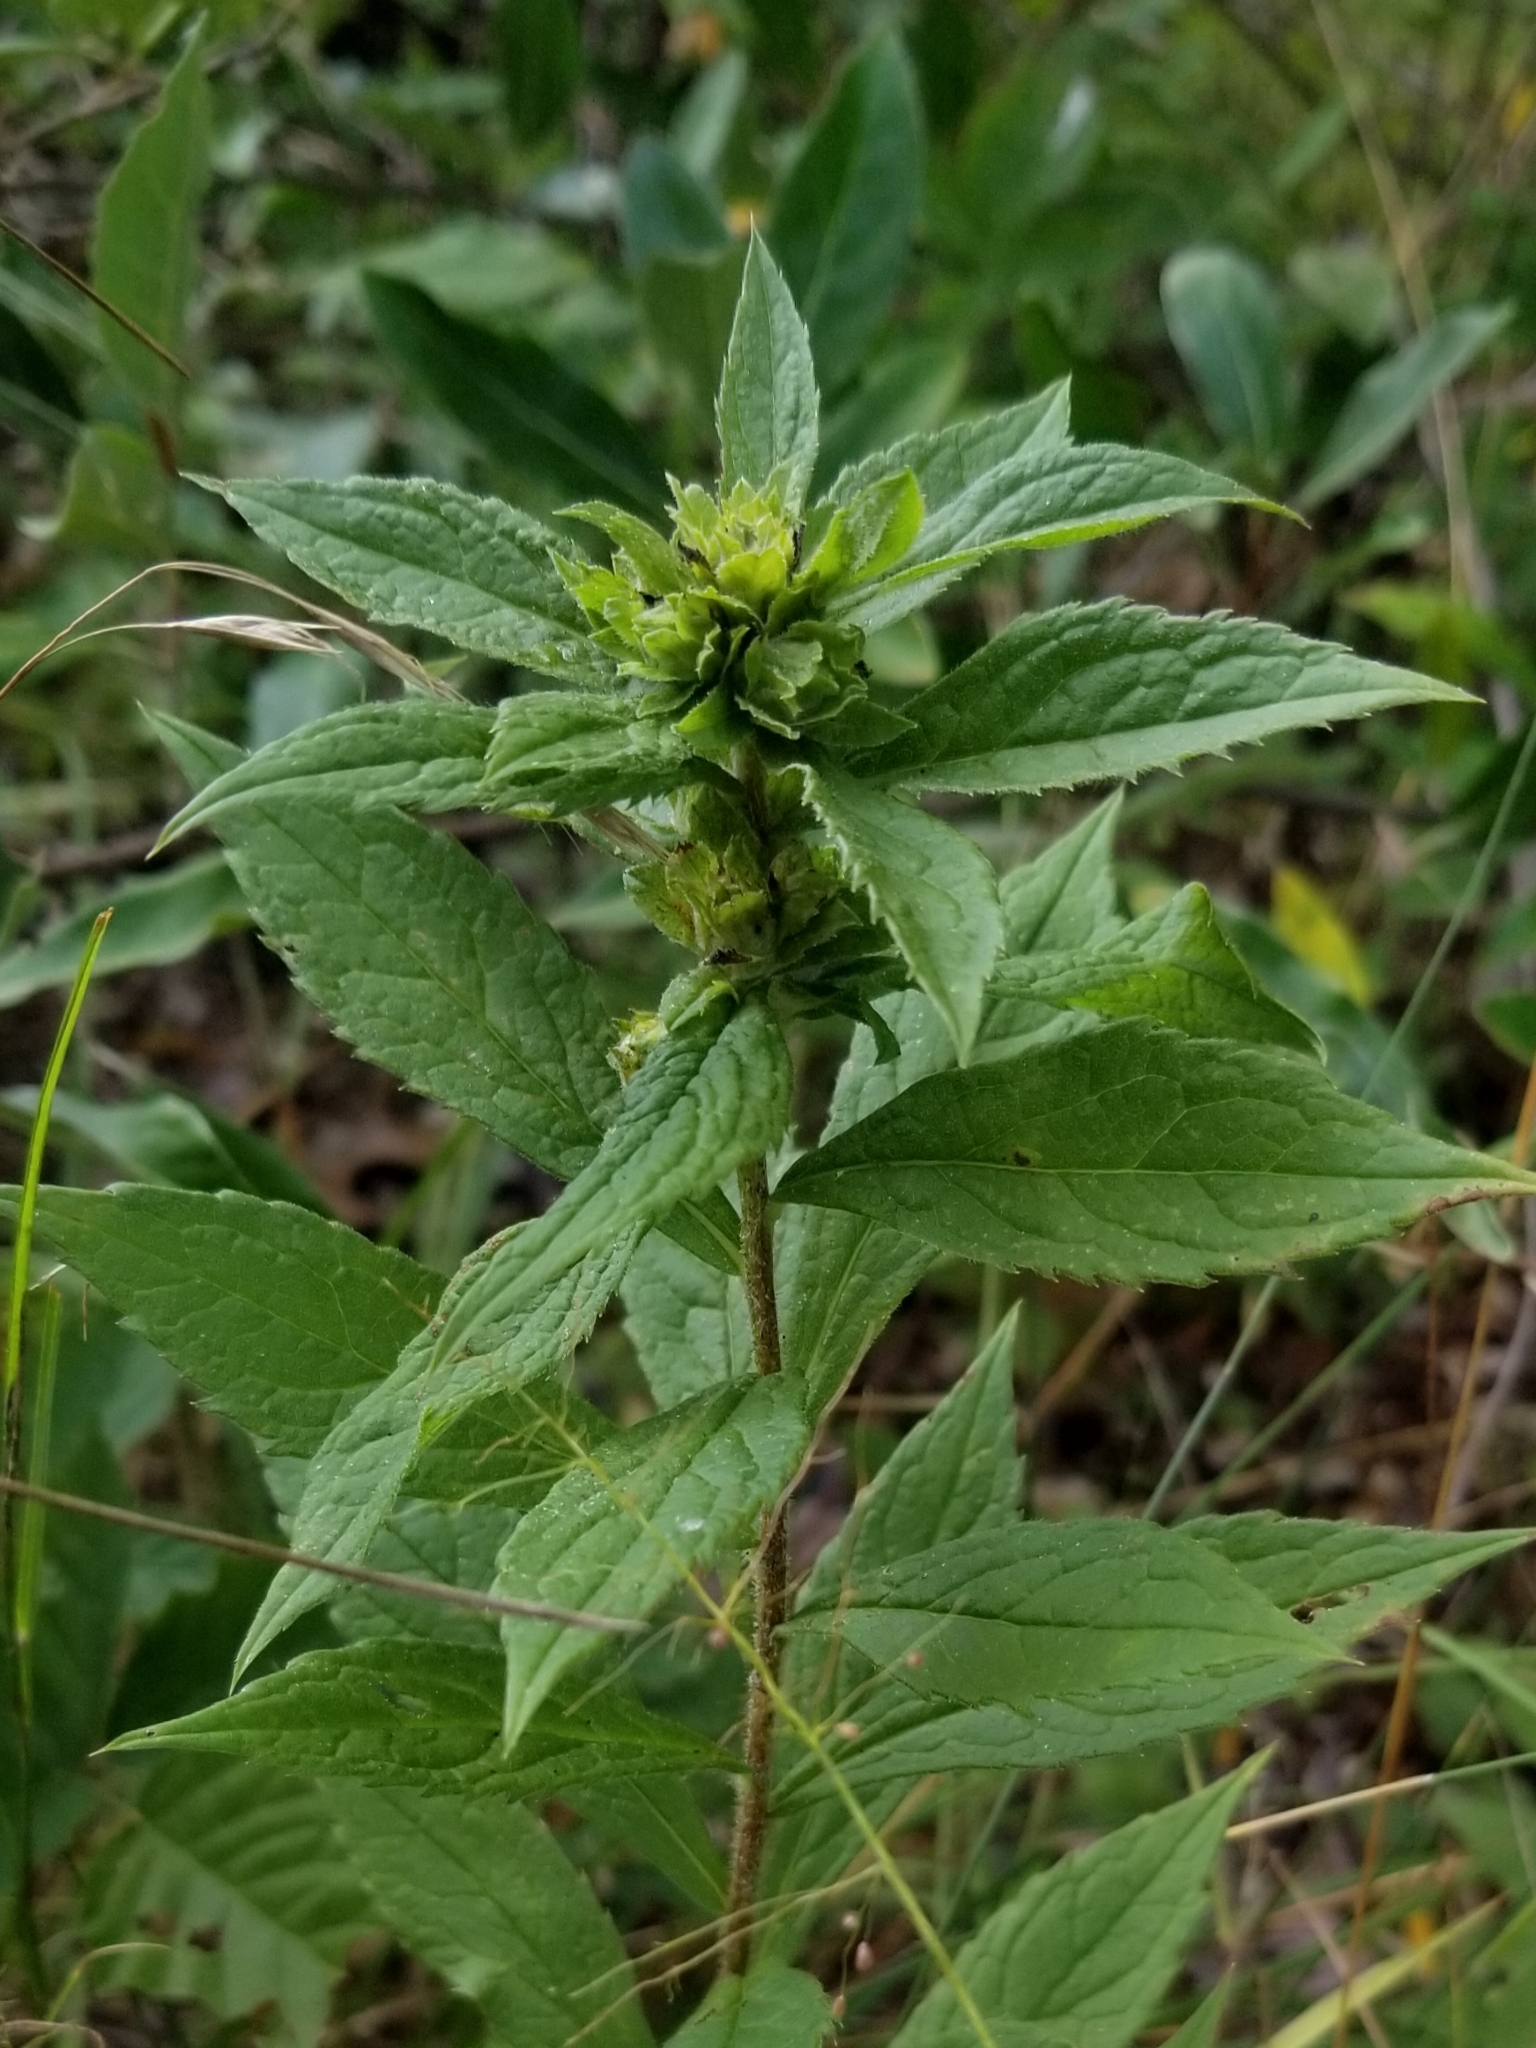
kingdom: Plantae
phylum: Tracheophyta
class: Magnoliopsida
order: Asterales
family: Asteraceae
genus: Solidago
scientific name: Solidago rugosa
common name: Rough-stemmed goldenrod
